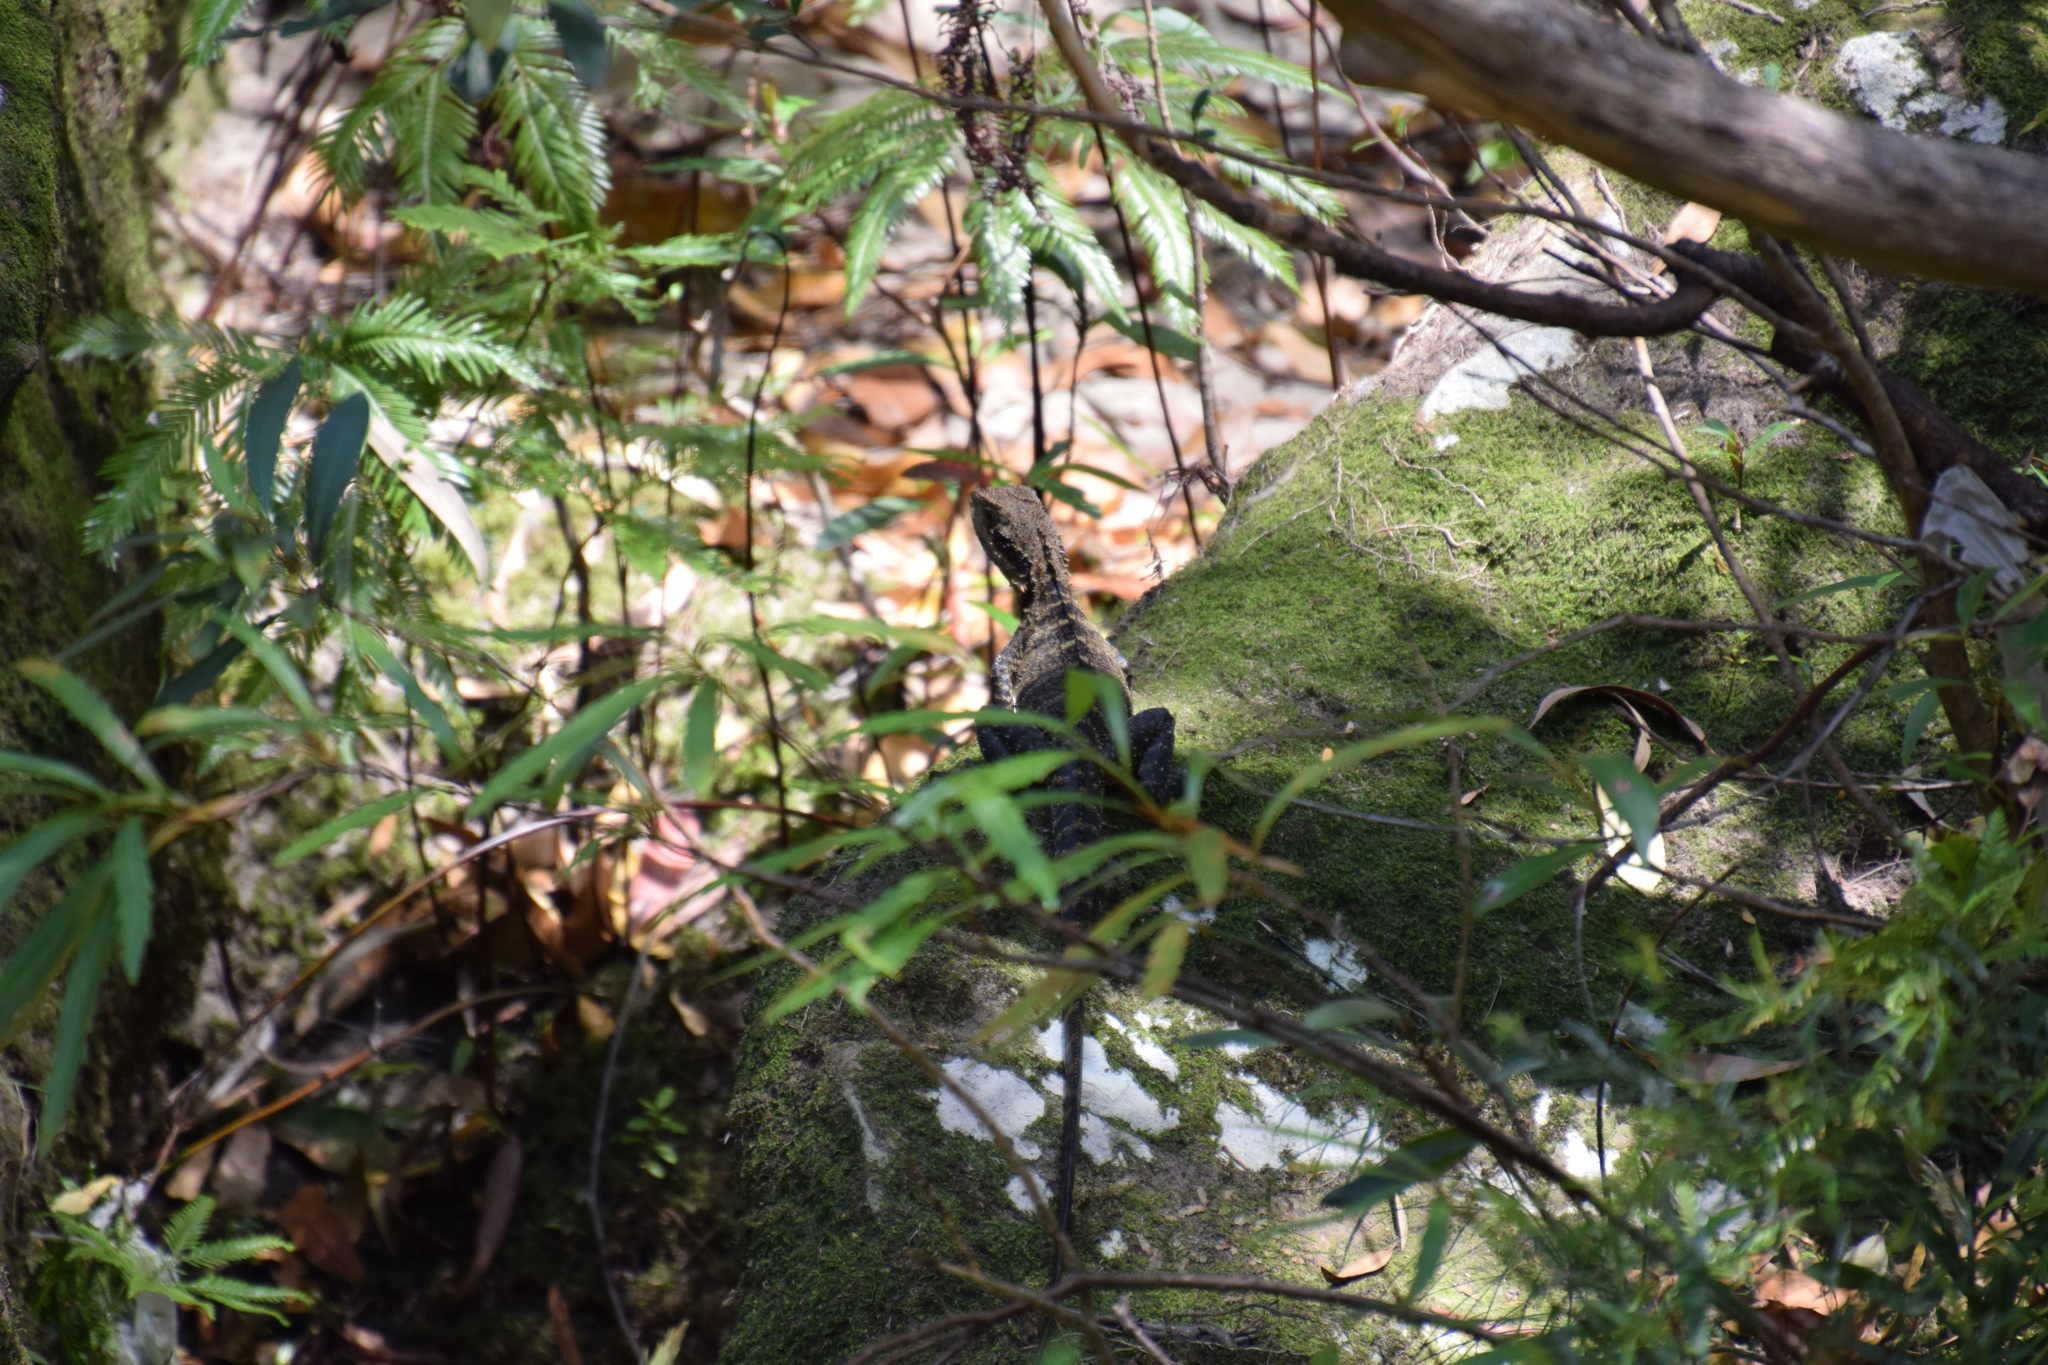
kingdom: Animalia
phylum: Chordata
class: Squamata
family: Agamidae
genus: Intellagama
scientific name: Intellagama lesueurii
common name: Eastern water dragon
